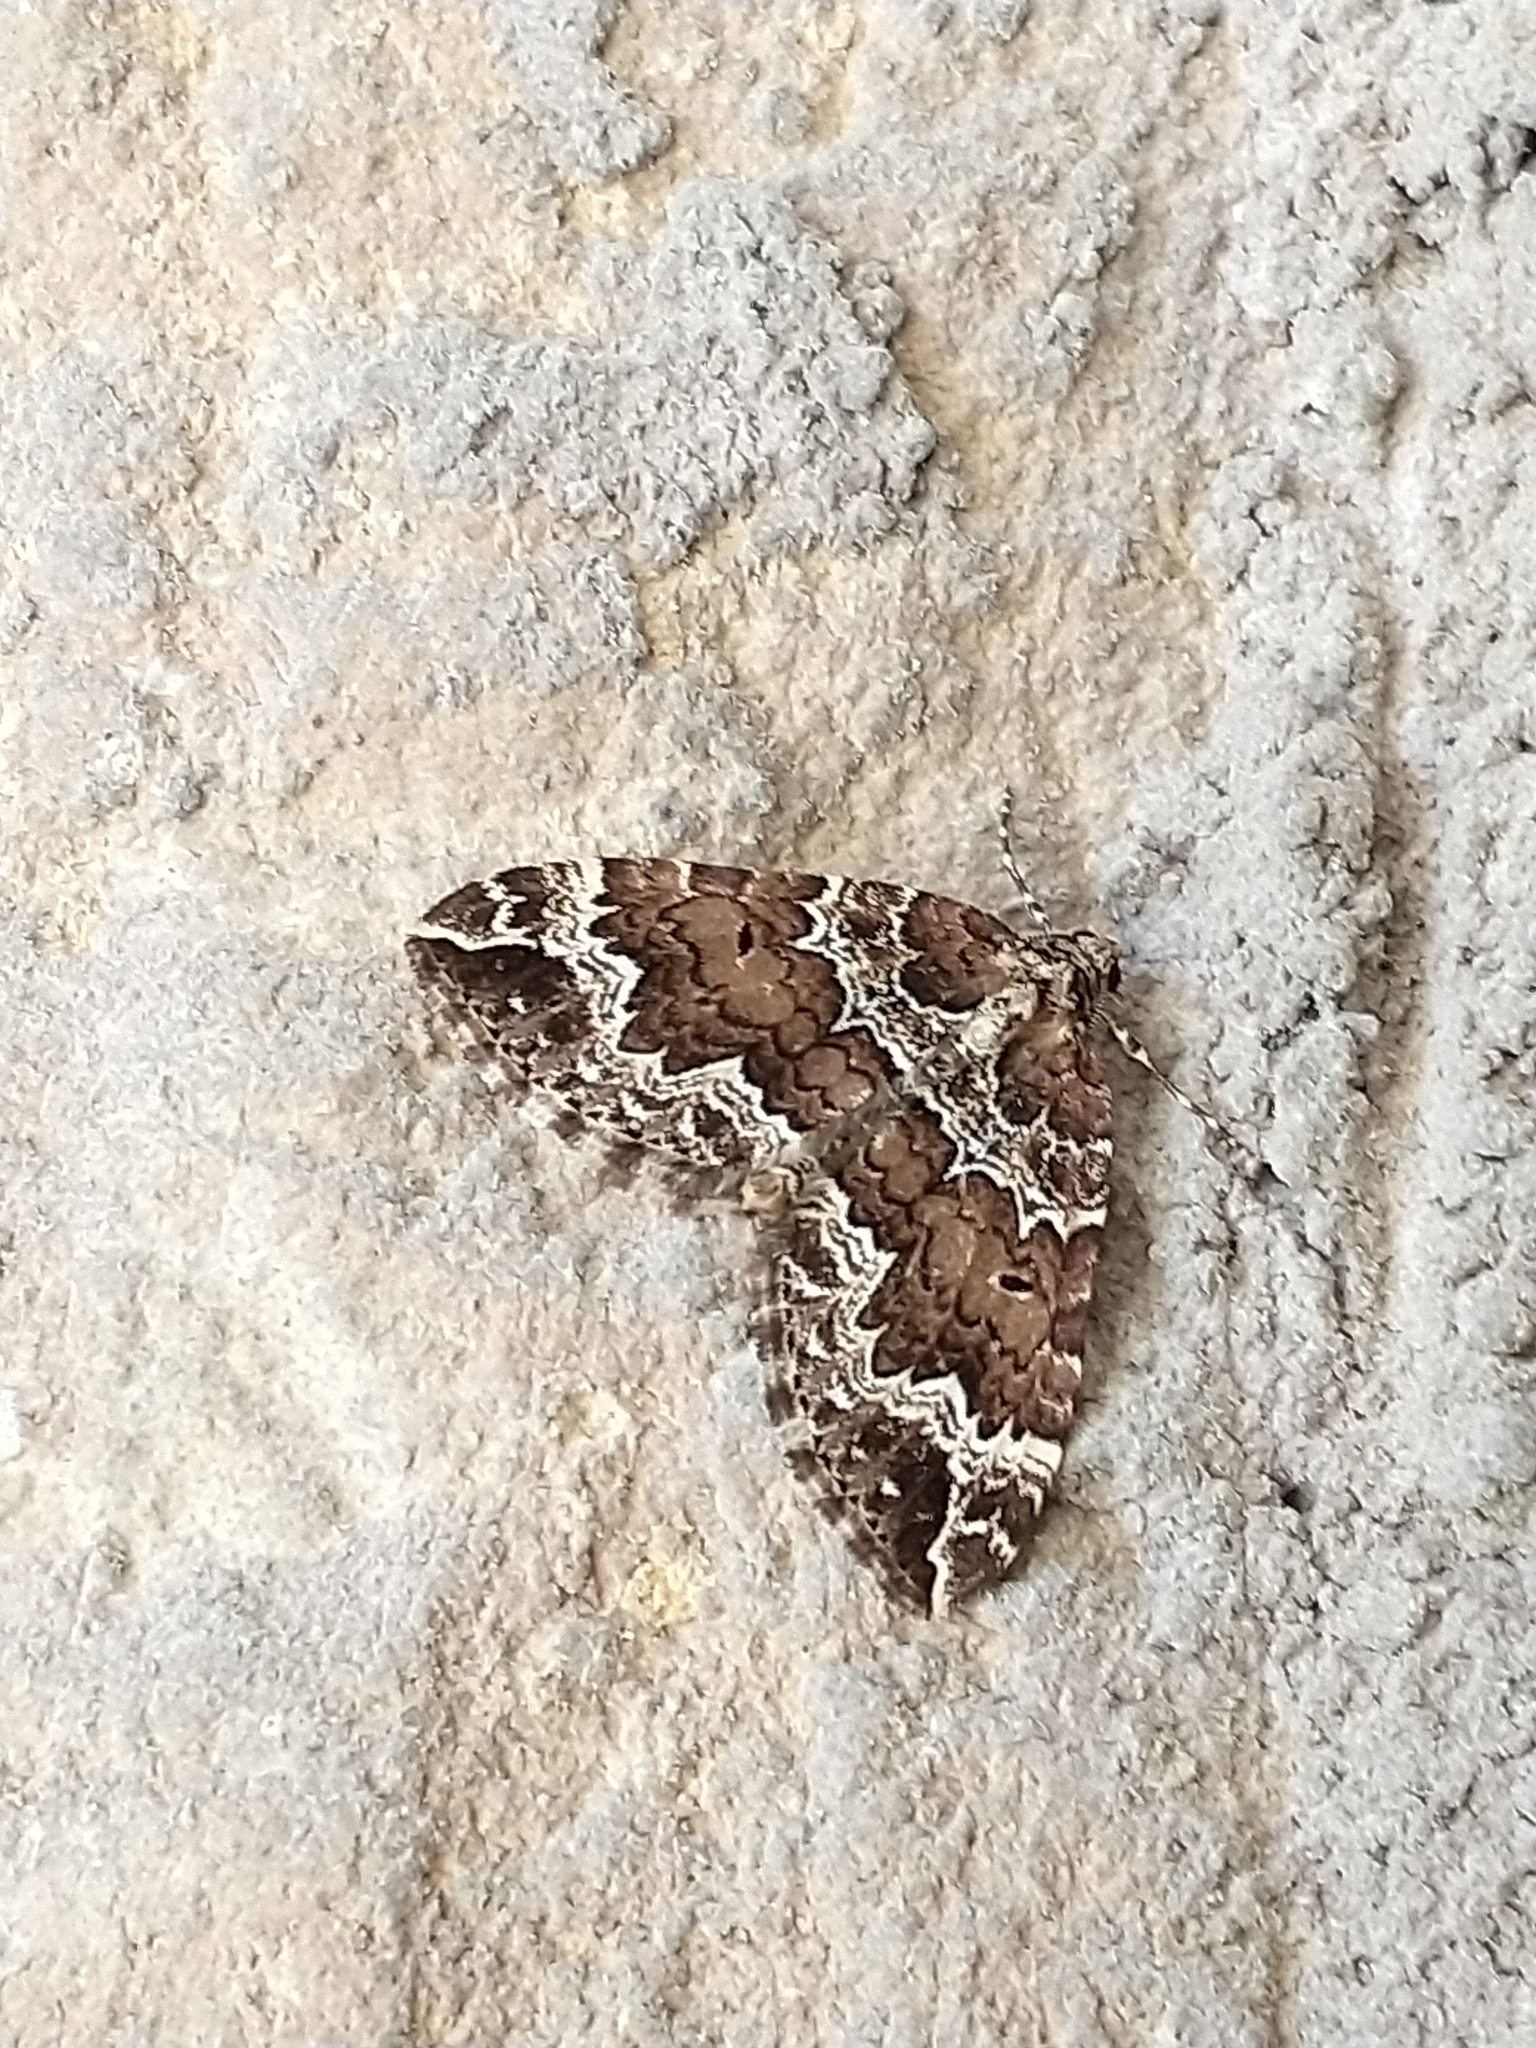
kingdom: Animalia
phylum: Arthropoda
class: Insecta
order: Lepidoptera
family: Geometridae
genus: Lampropteryx
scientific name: Lampropteryx suffumata
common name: Water carpet
